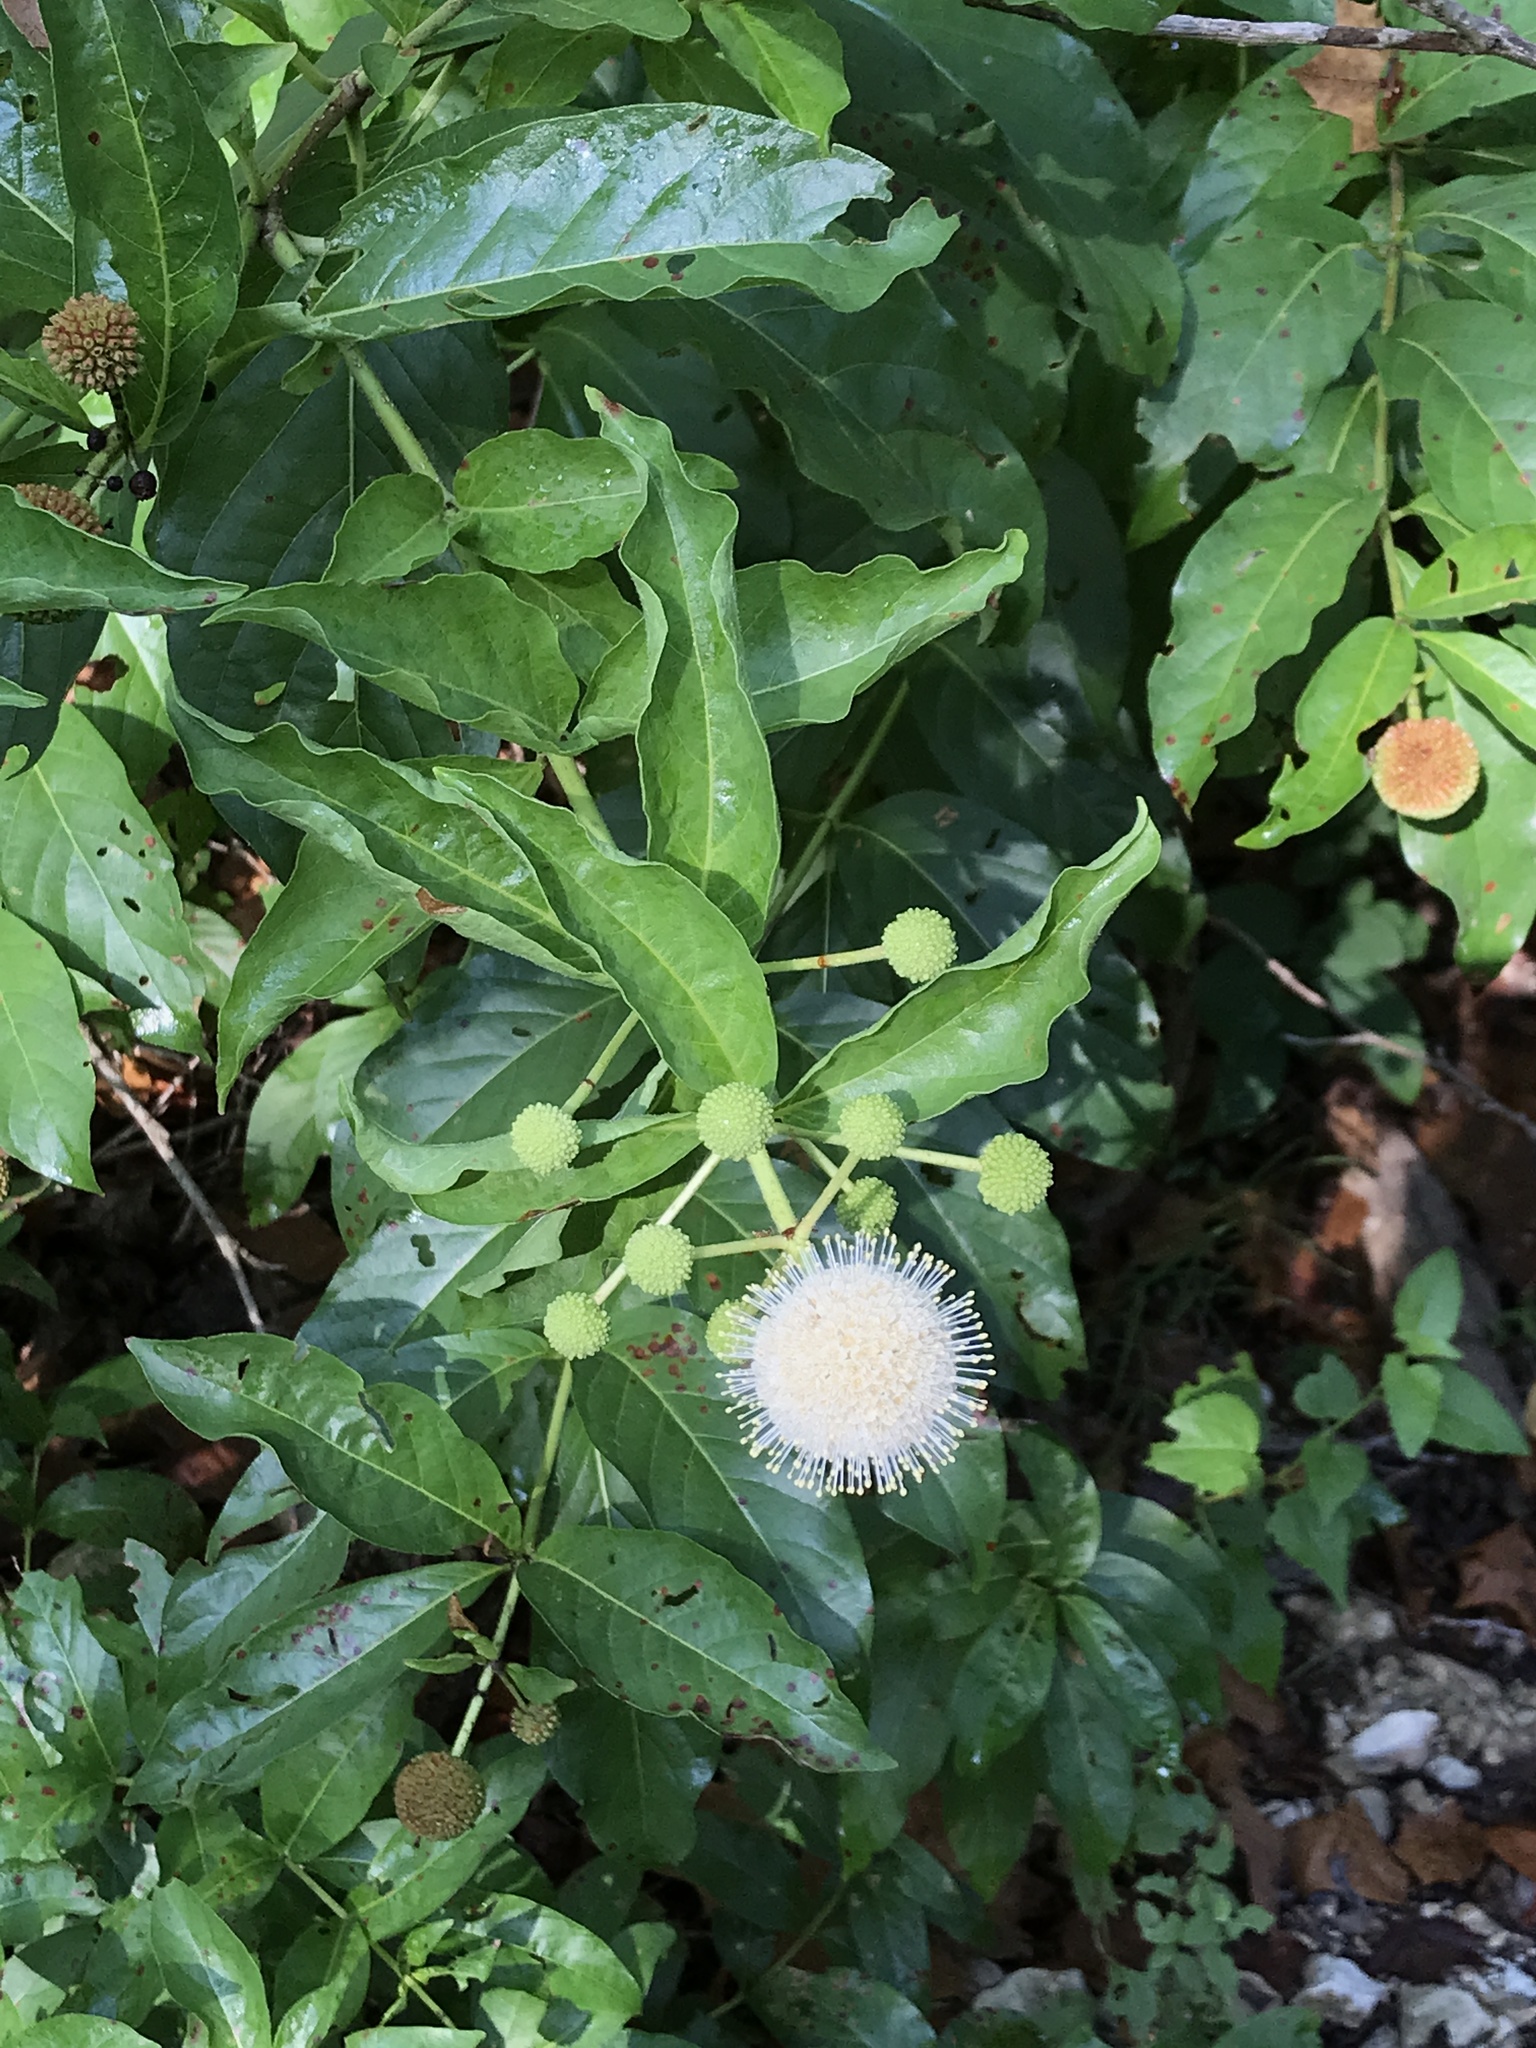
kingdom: Plantae
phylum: Tracheophyta
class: Magnoliopsida
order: Gentianales
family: Rubiaceae
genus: Cephalanthus
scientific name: Cephalanthus occidentalis
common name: Button-willow
